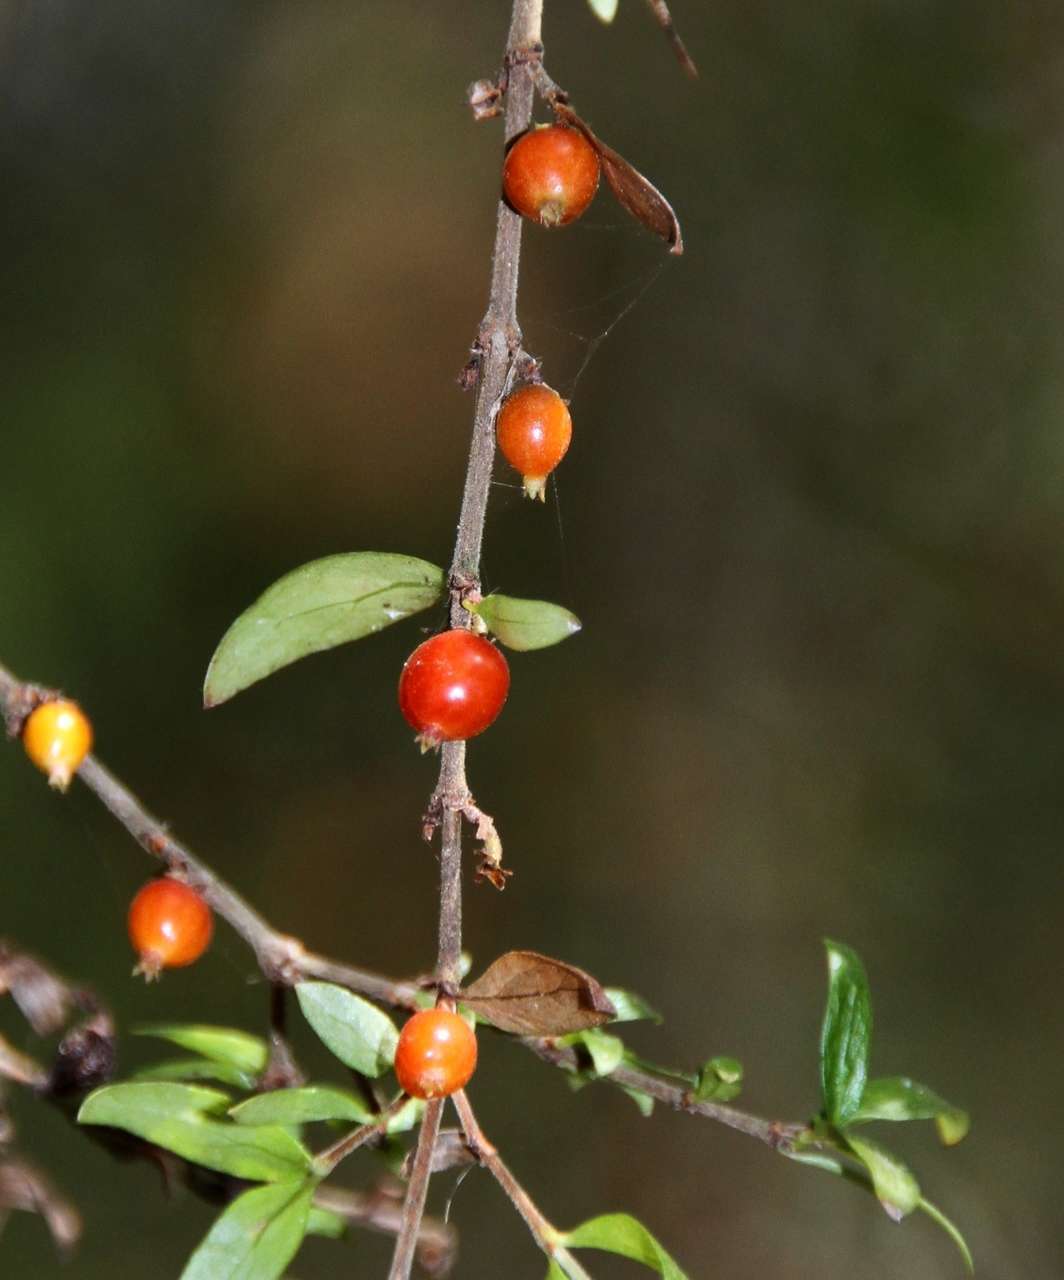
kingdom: Plantae
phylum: Tracheophyta
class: Magnoliopsida
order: Gentianales
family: Rubiaceae
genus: Coprosma
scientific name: Coprosma quadrifida
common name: Prickly currantbush
